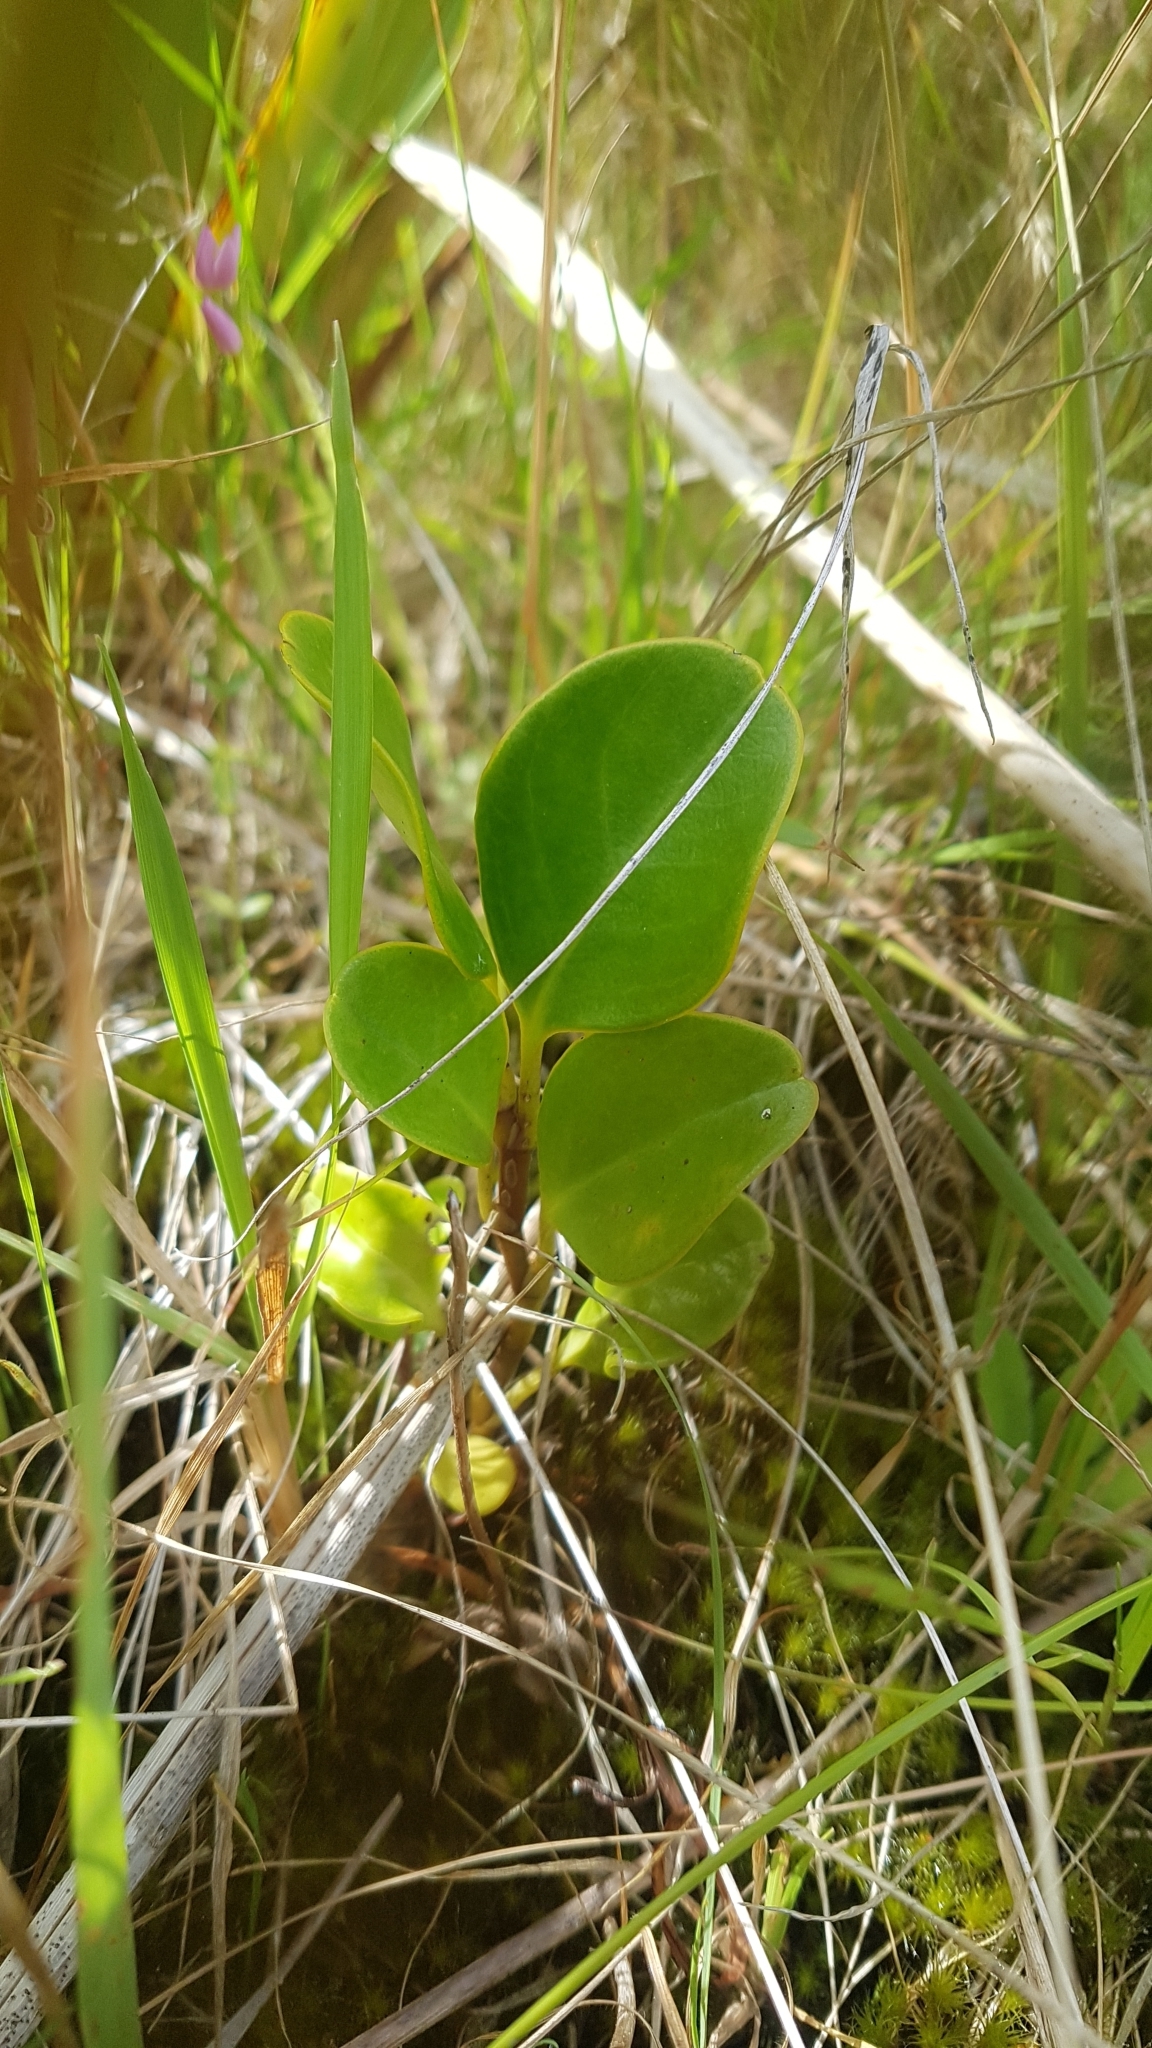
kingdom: Plantae
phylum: Tracheophyta
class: Magnoliopsida
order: Apiales
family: Griseliniaceae
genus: Griselinia
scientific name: Griselinia littoralis
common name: New zealand broadleaf
